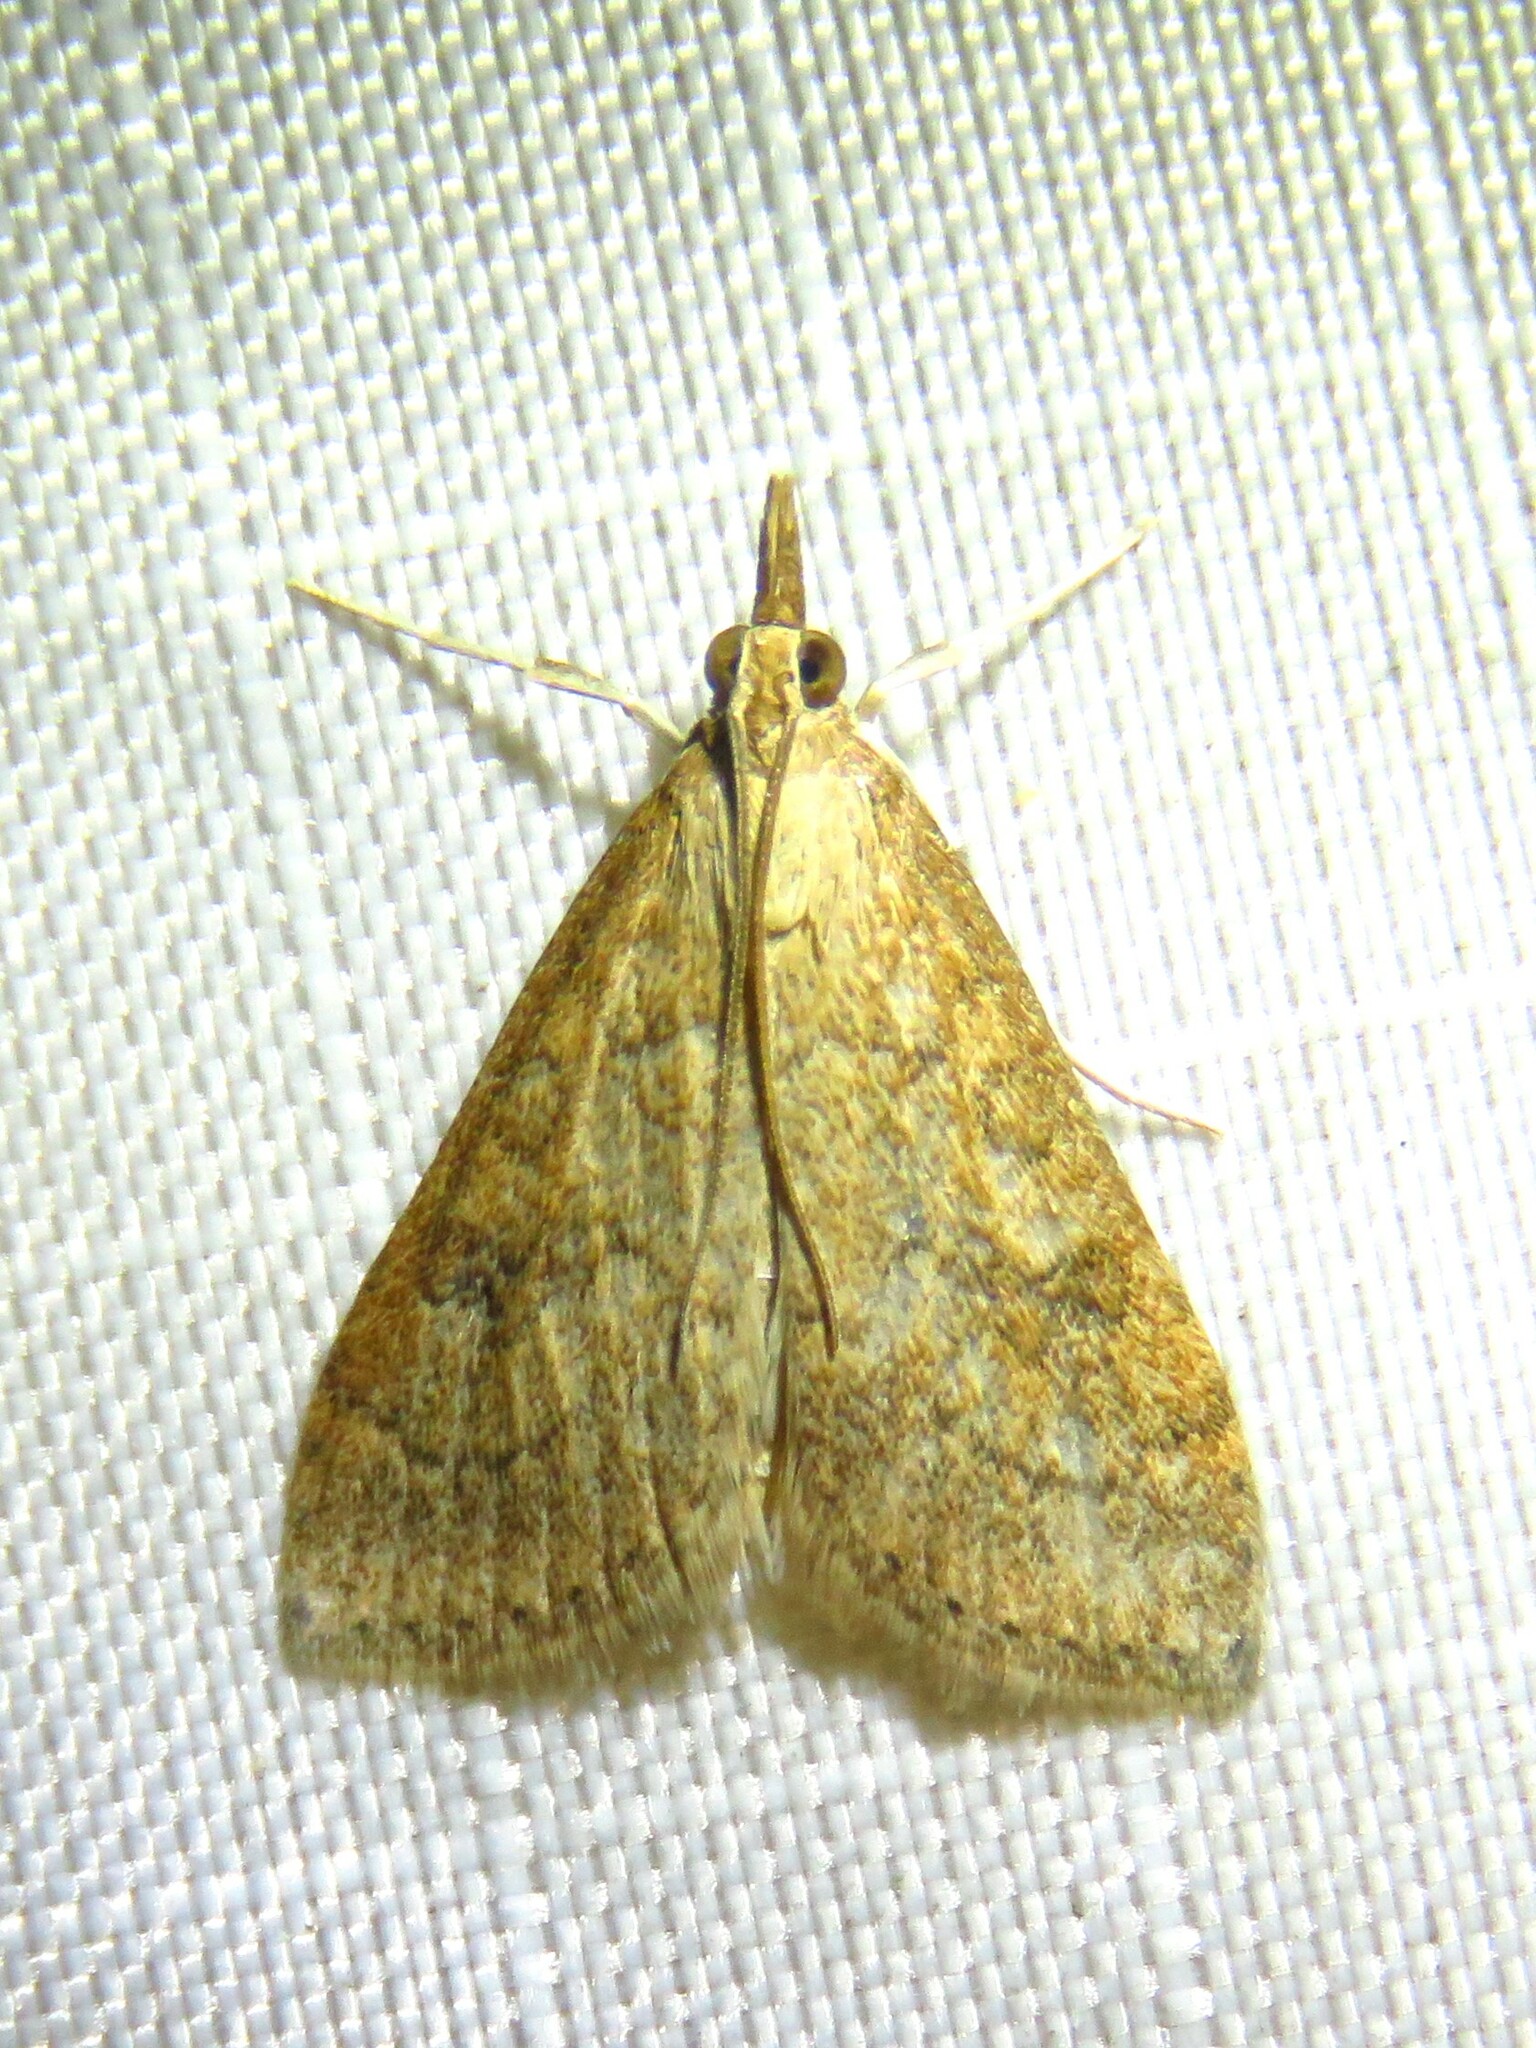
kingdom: Animalia
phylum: Arthropoda
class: Insecta
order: Lepidoptera
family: Crambidae
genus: Udea
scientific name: Udea rubigalis
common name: Celery leaftier moth
